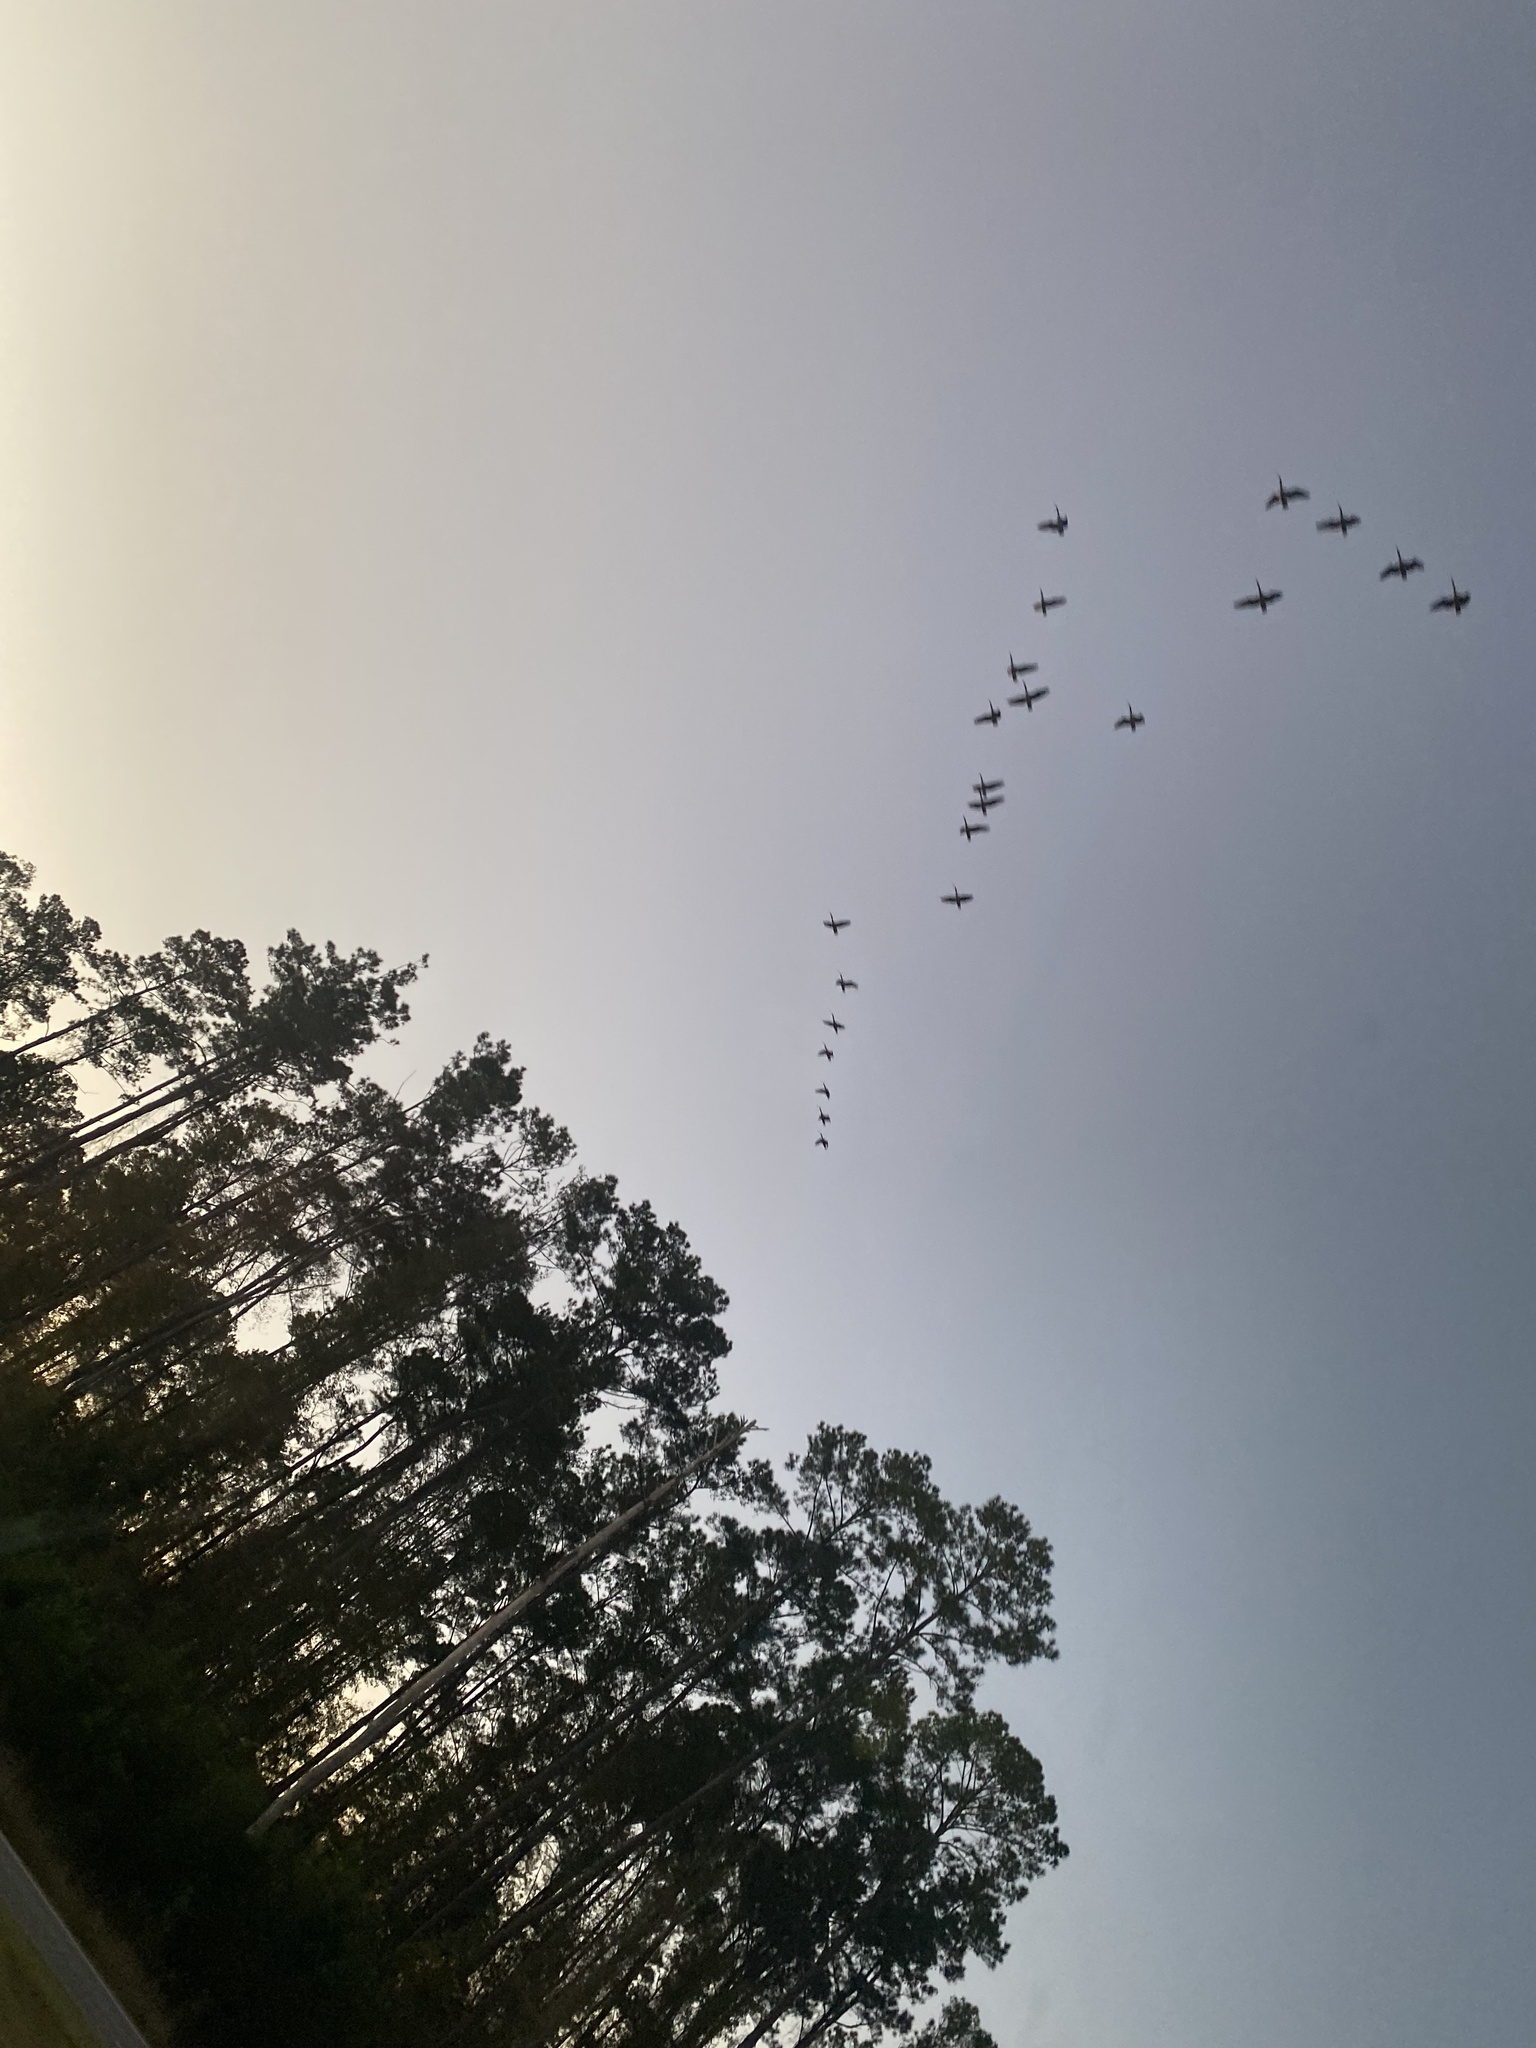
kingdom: Animalia
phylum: Chordata
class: Aves
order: Anseriformes
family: Anatidae
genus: Branta
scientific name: Branta canadensis
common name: Canada goose
